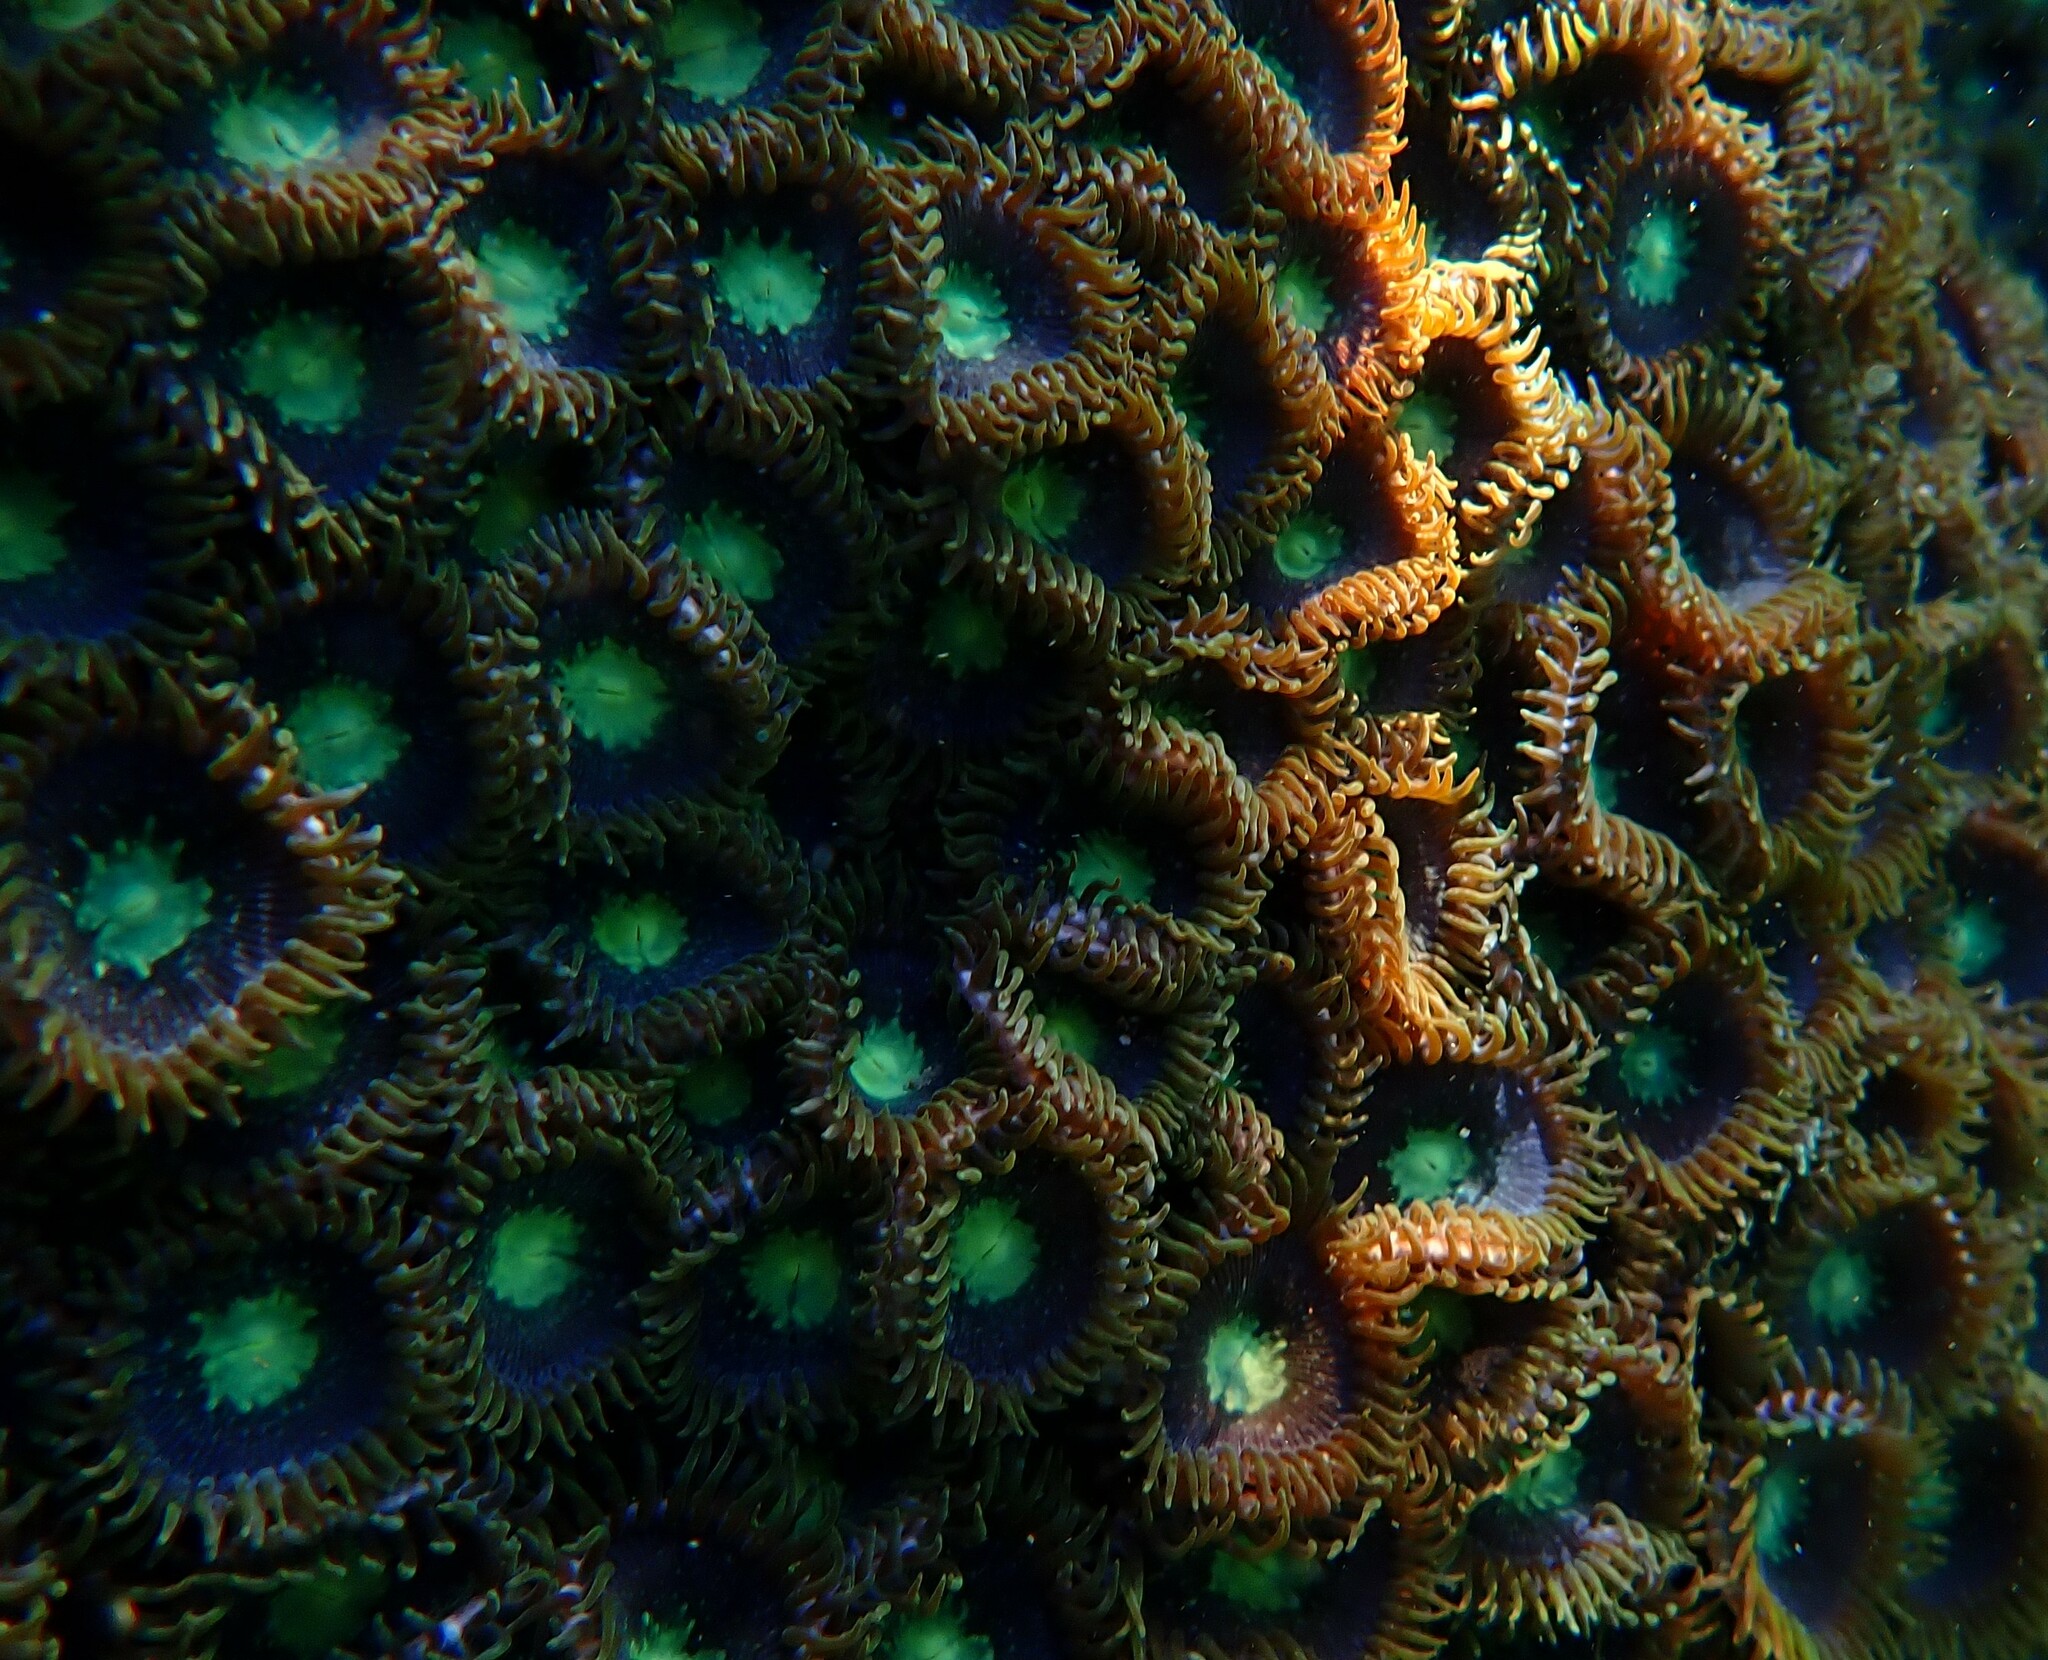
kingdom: Animalia
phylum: Cnidaria
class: Anthozoa
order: Zoantharia
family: Zoanthidae
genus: Zoanthus
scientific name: Zoanthus sansibaricus
